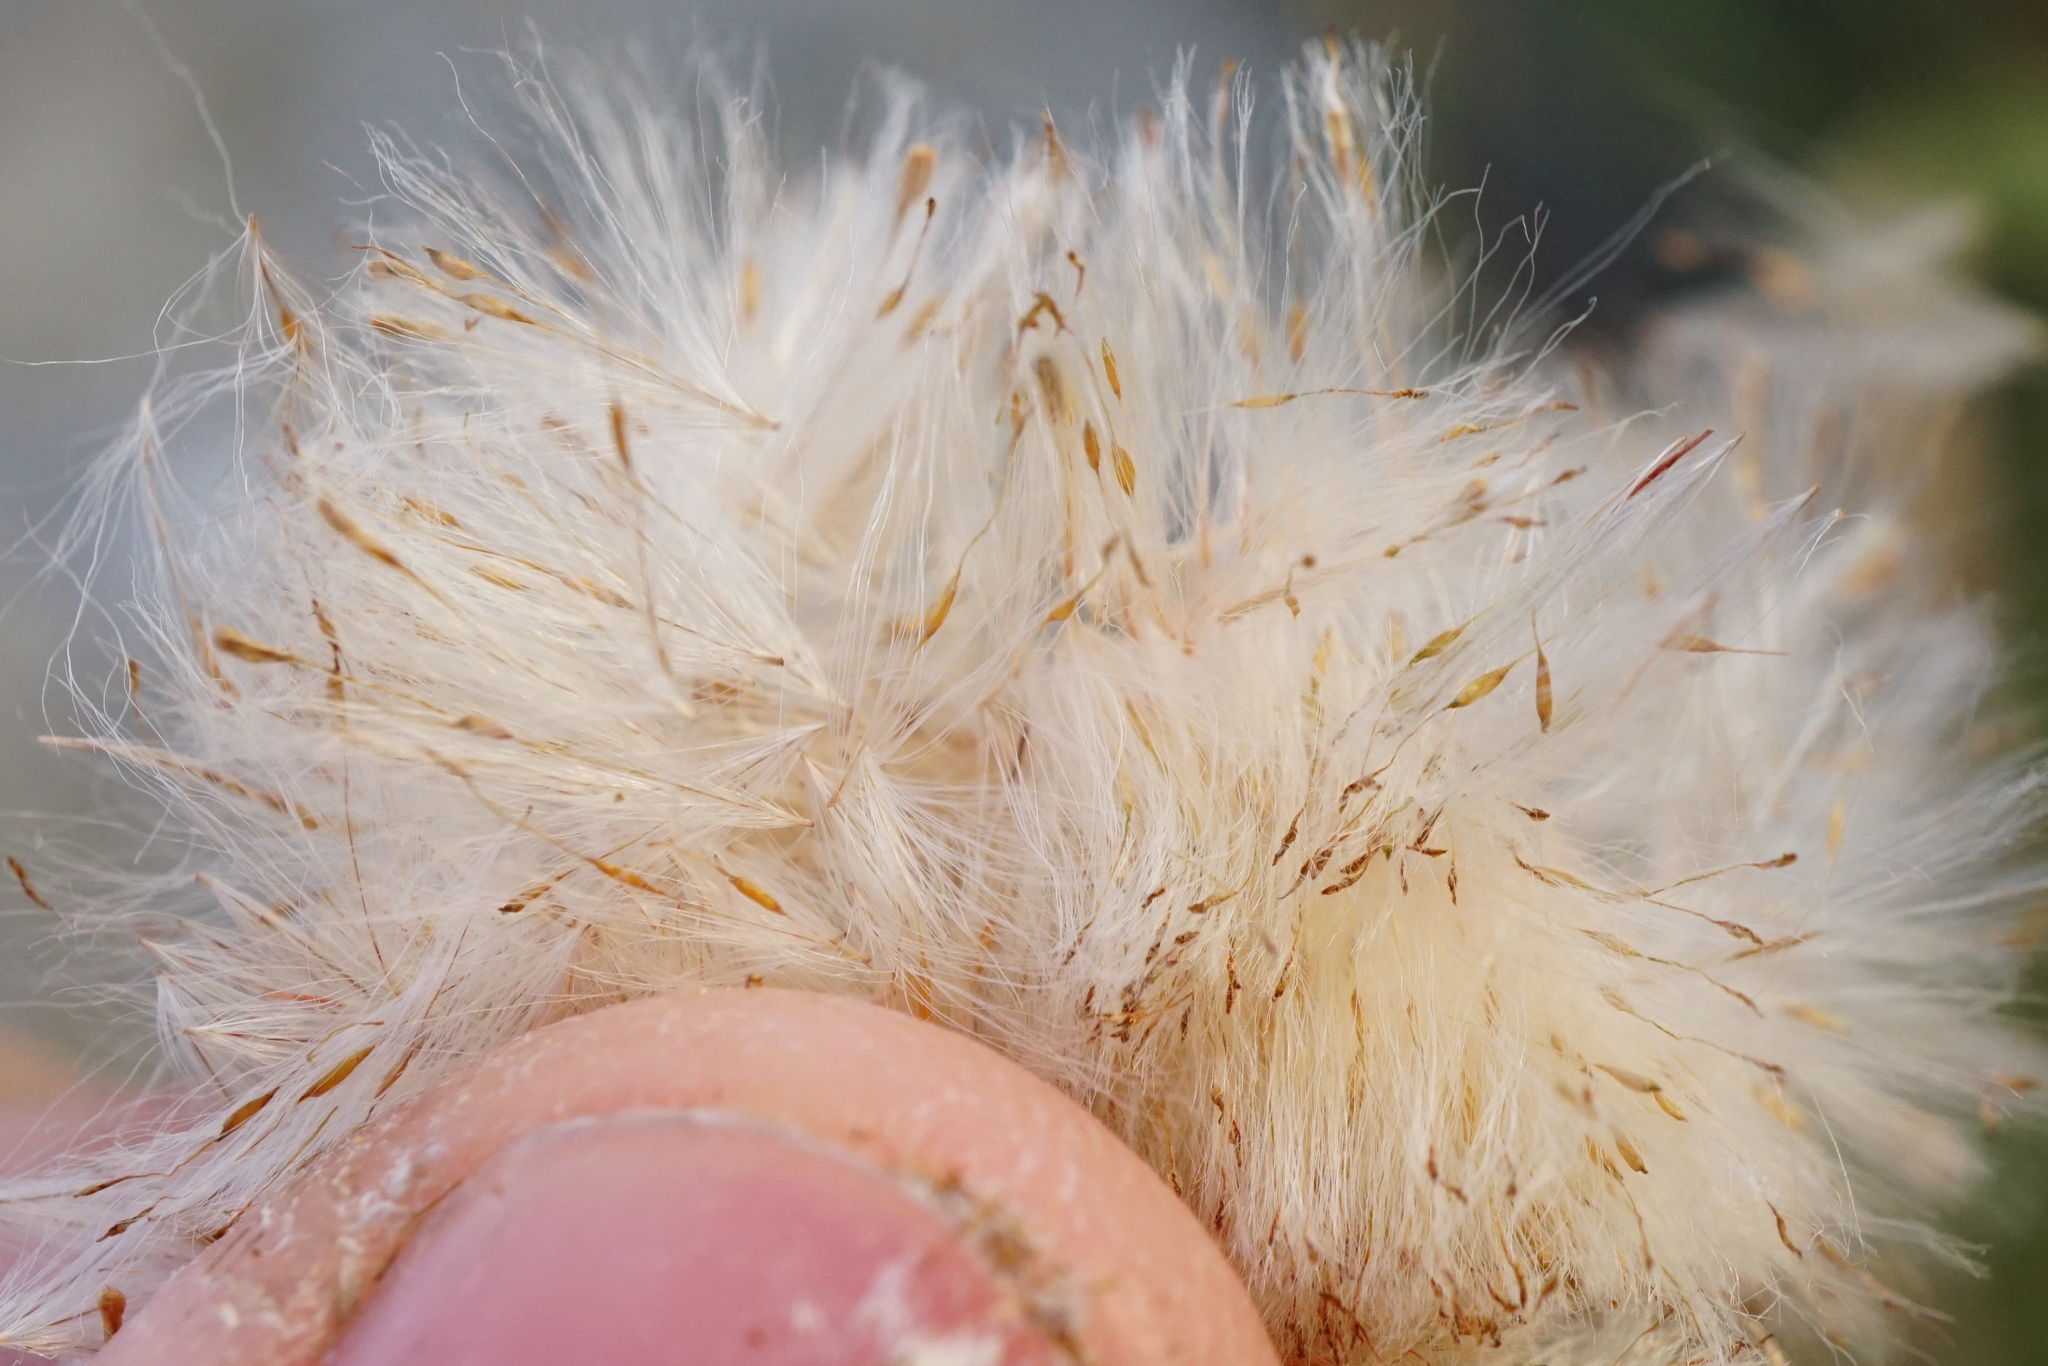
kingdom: Plantae
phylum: Tracheophyta
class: Liliopsida
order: Poales
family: Typhaceae
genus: Typha
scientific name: Typha latifolia
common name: Broadleaf cattail
